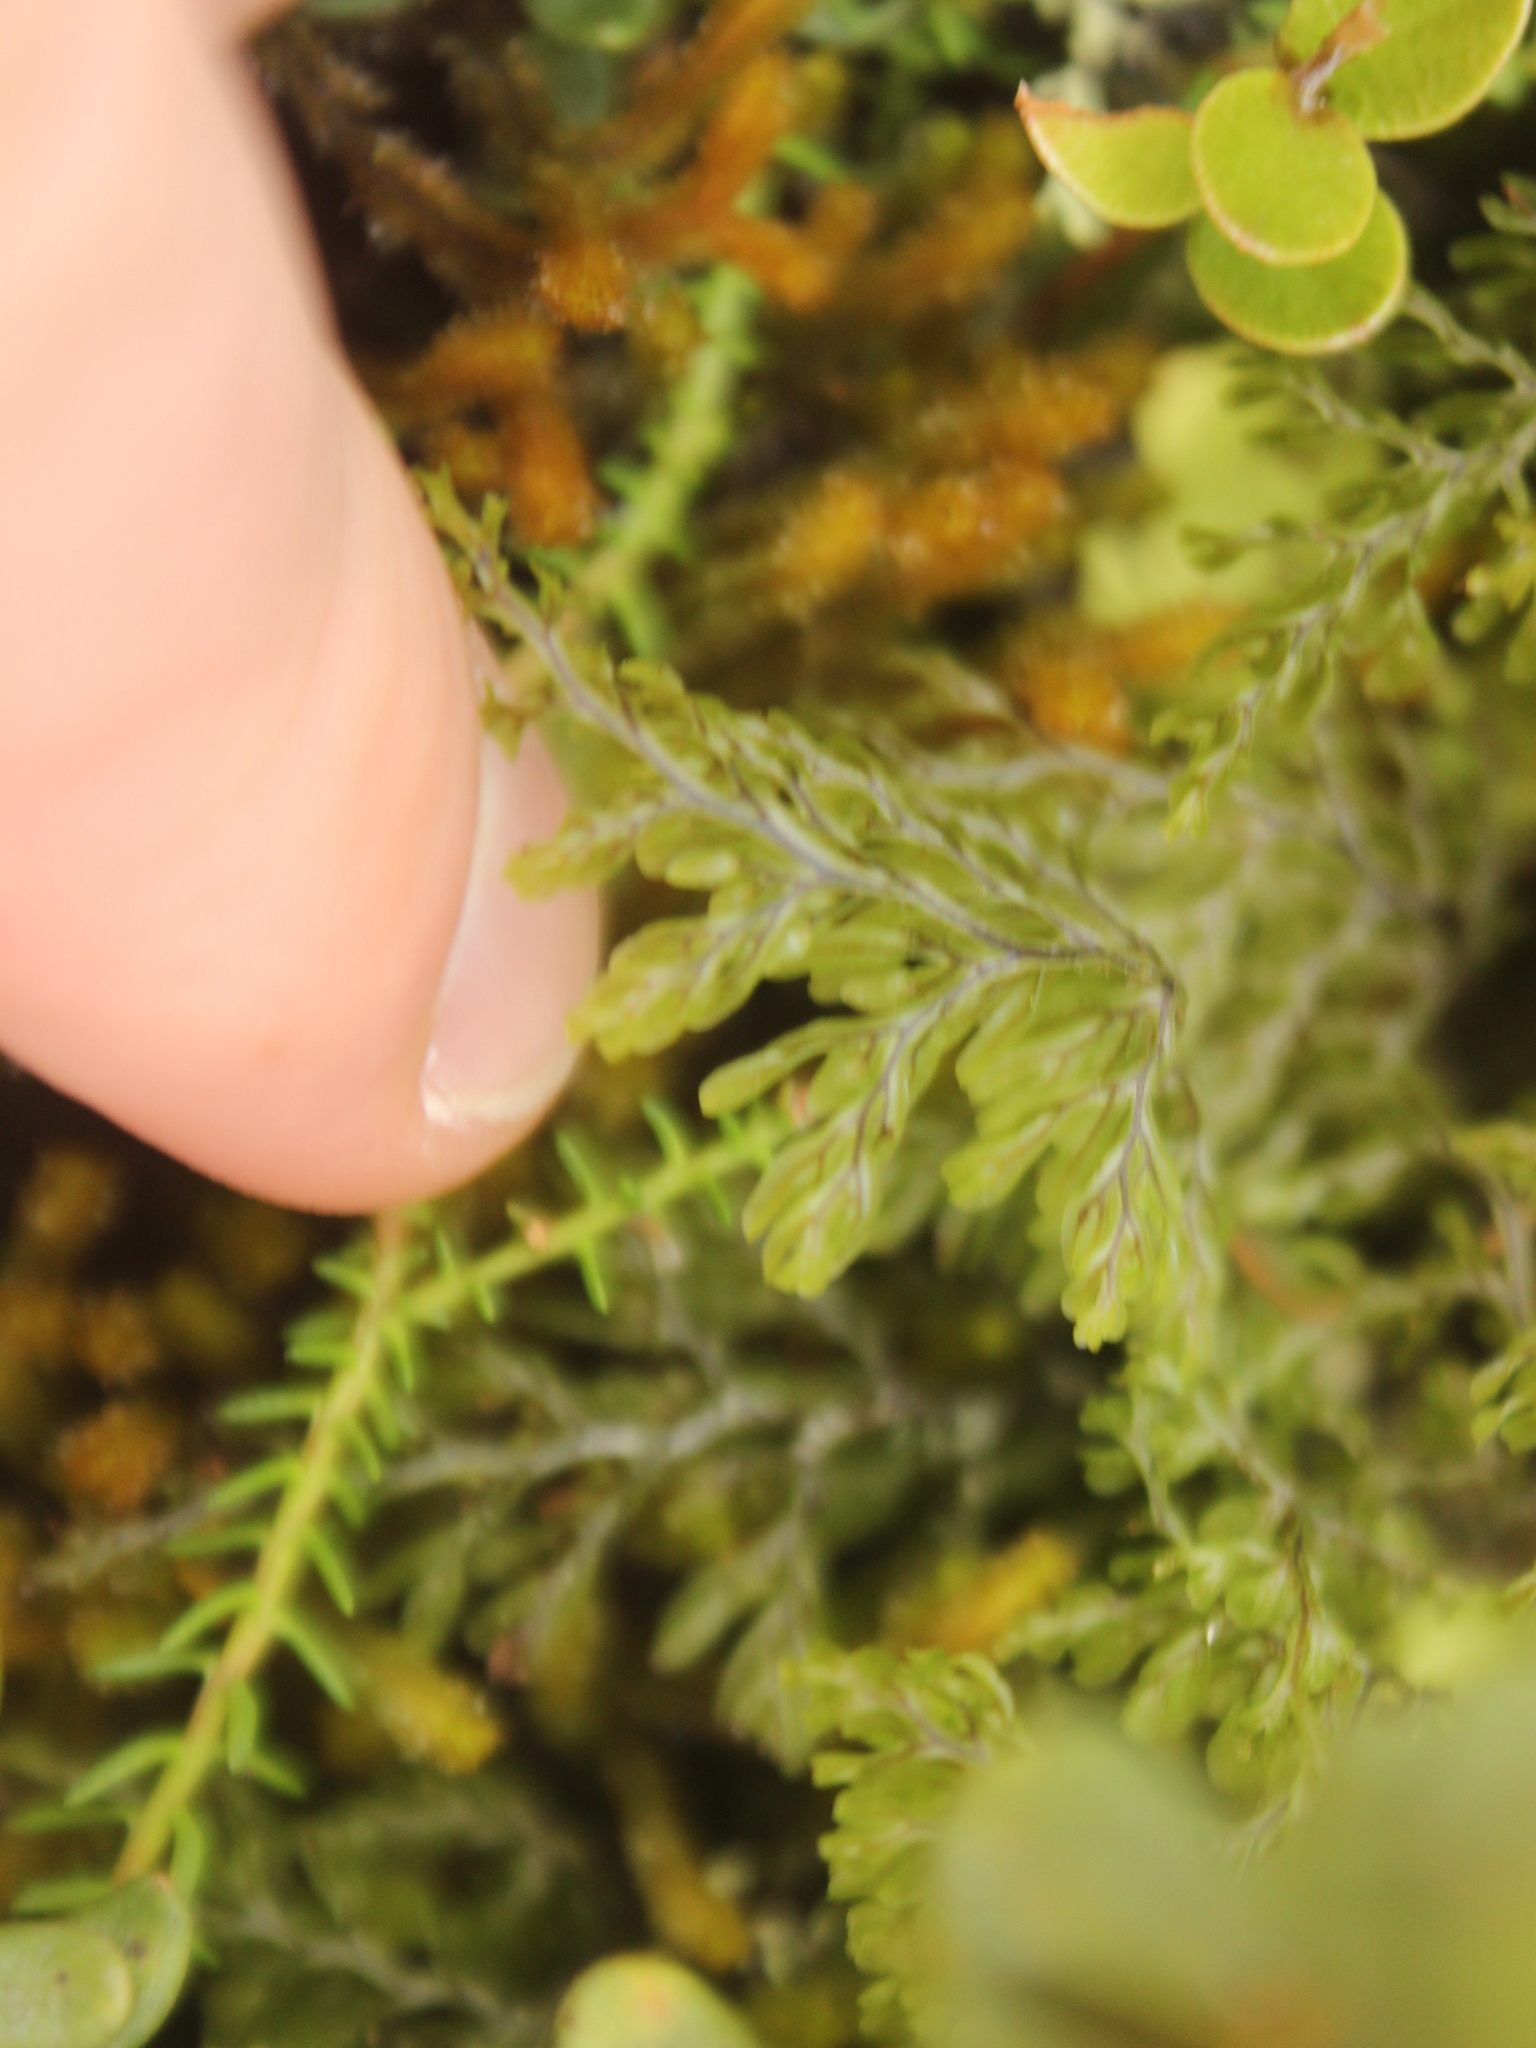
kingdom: Plantae
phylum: Tracheophyta
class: Polypodiopsida
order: Hymenophyllales
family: Hymenophyllaceae
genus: Hymenophyllum
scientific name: Hymenophyllum villosum
